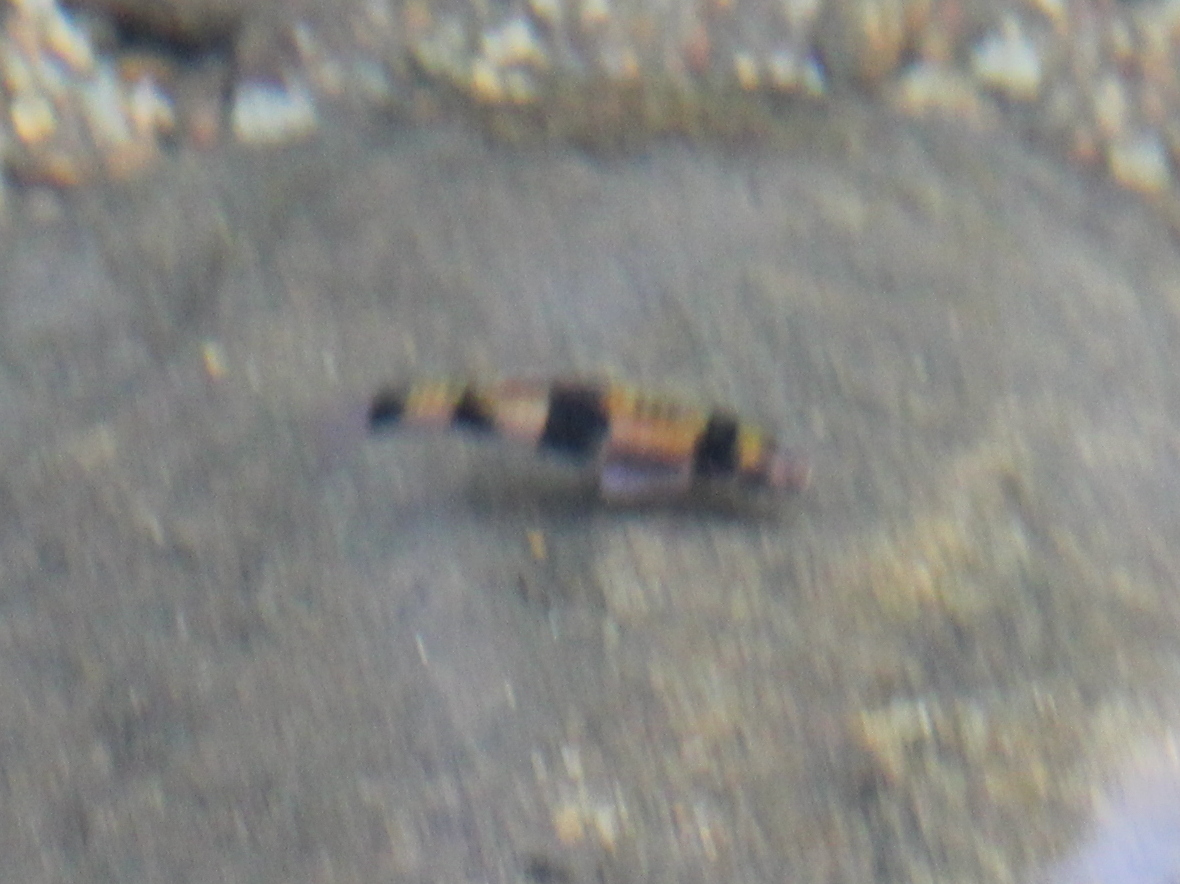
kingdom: Animalia
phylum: Chordata
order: Cypriniformes
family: Cyprinidae
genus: Haludaria
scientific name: Haludaria fasciata
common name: Melon barb
